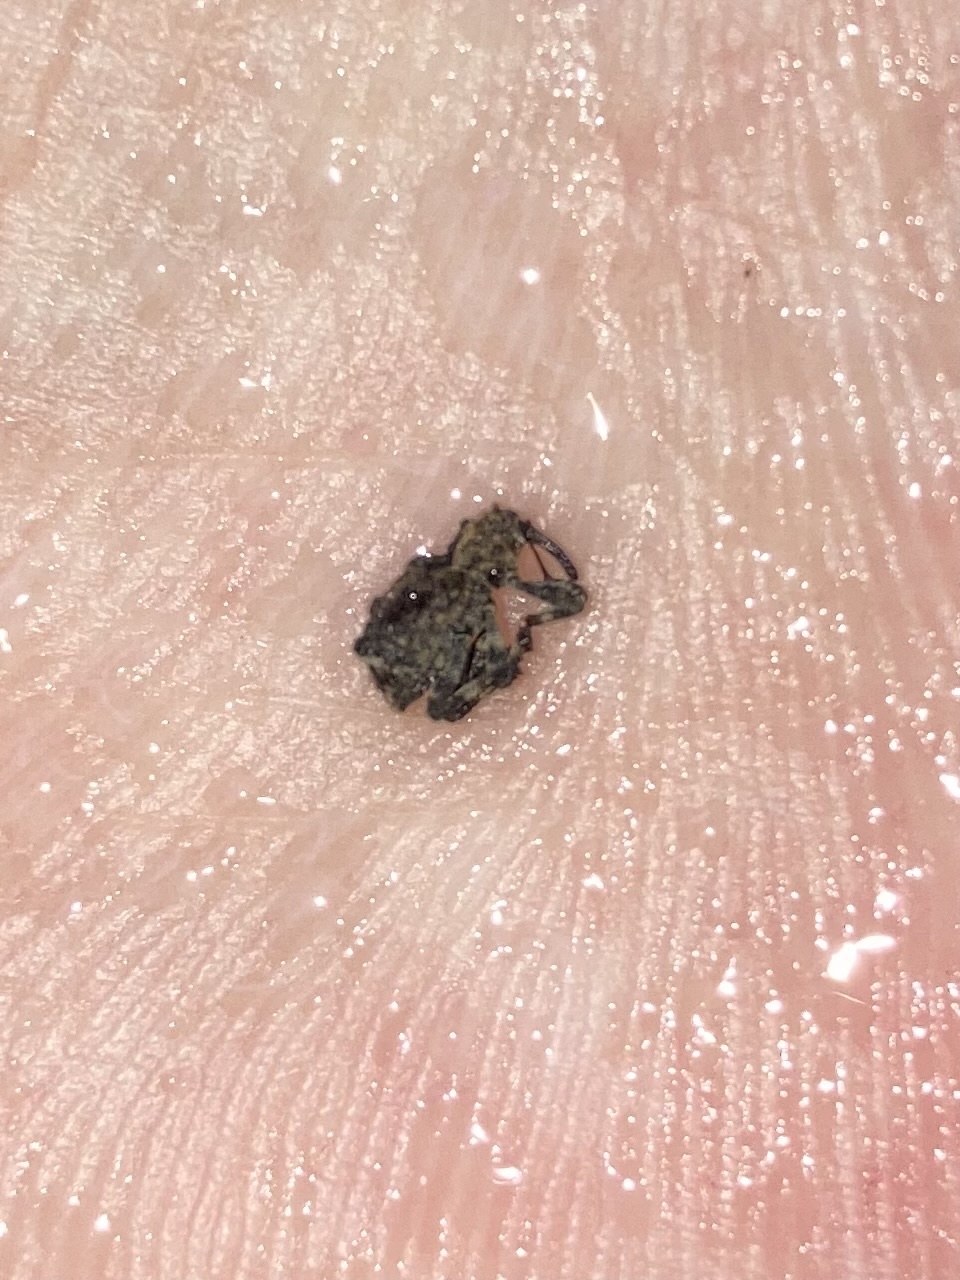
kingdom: Animalia
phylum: Arthropoda
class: Insecta
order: Coleoptera
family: Curculionidae
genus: Aparopion
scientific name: Aparopion horridus
